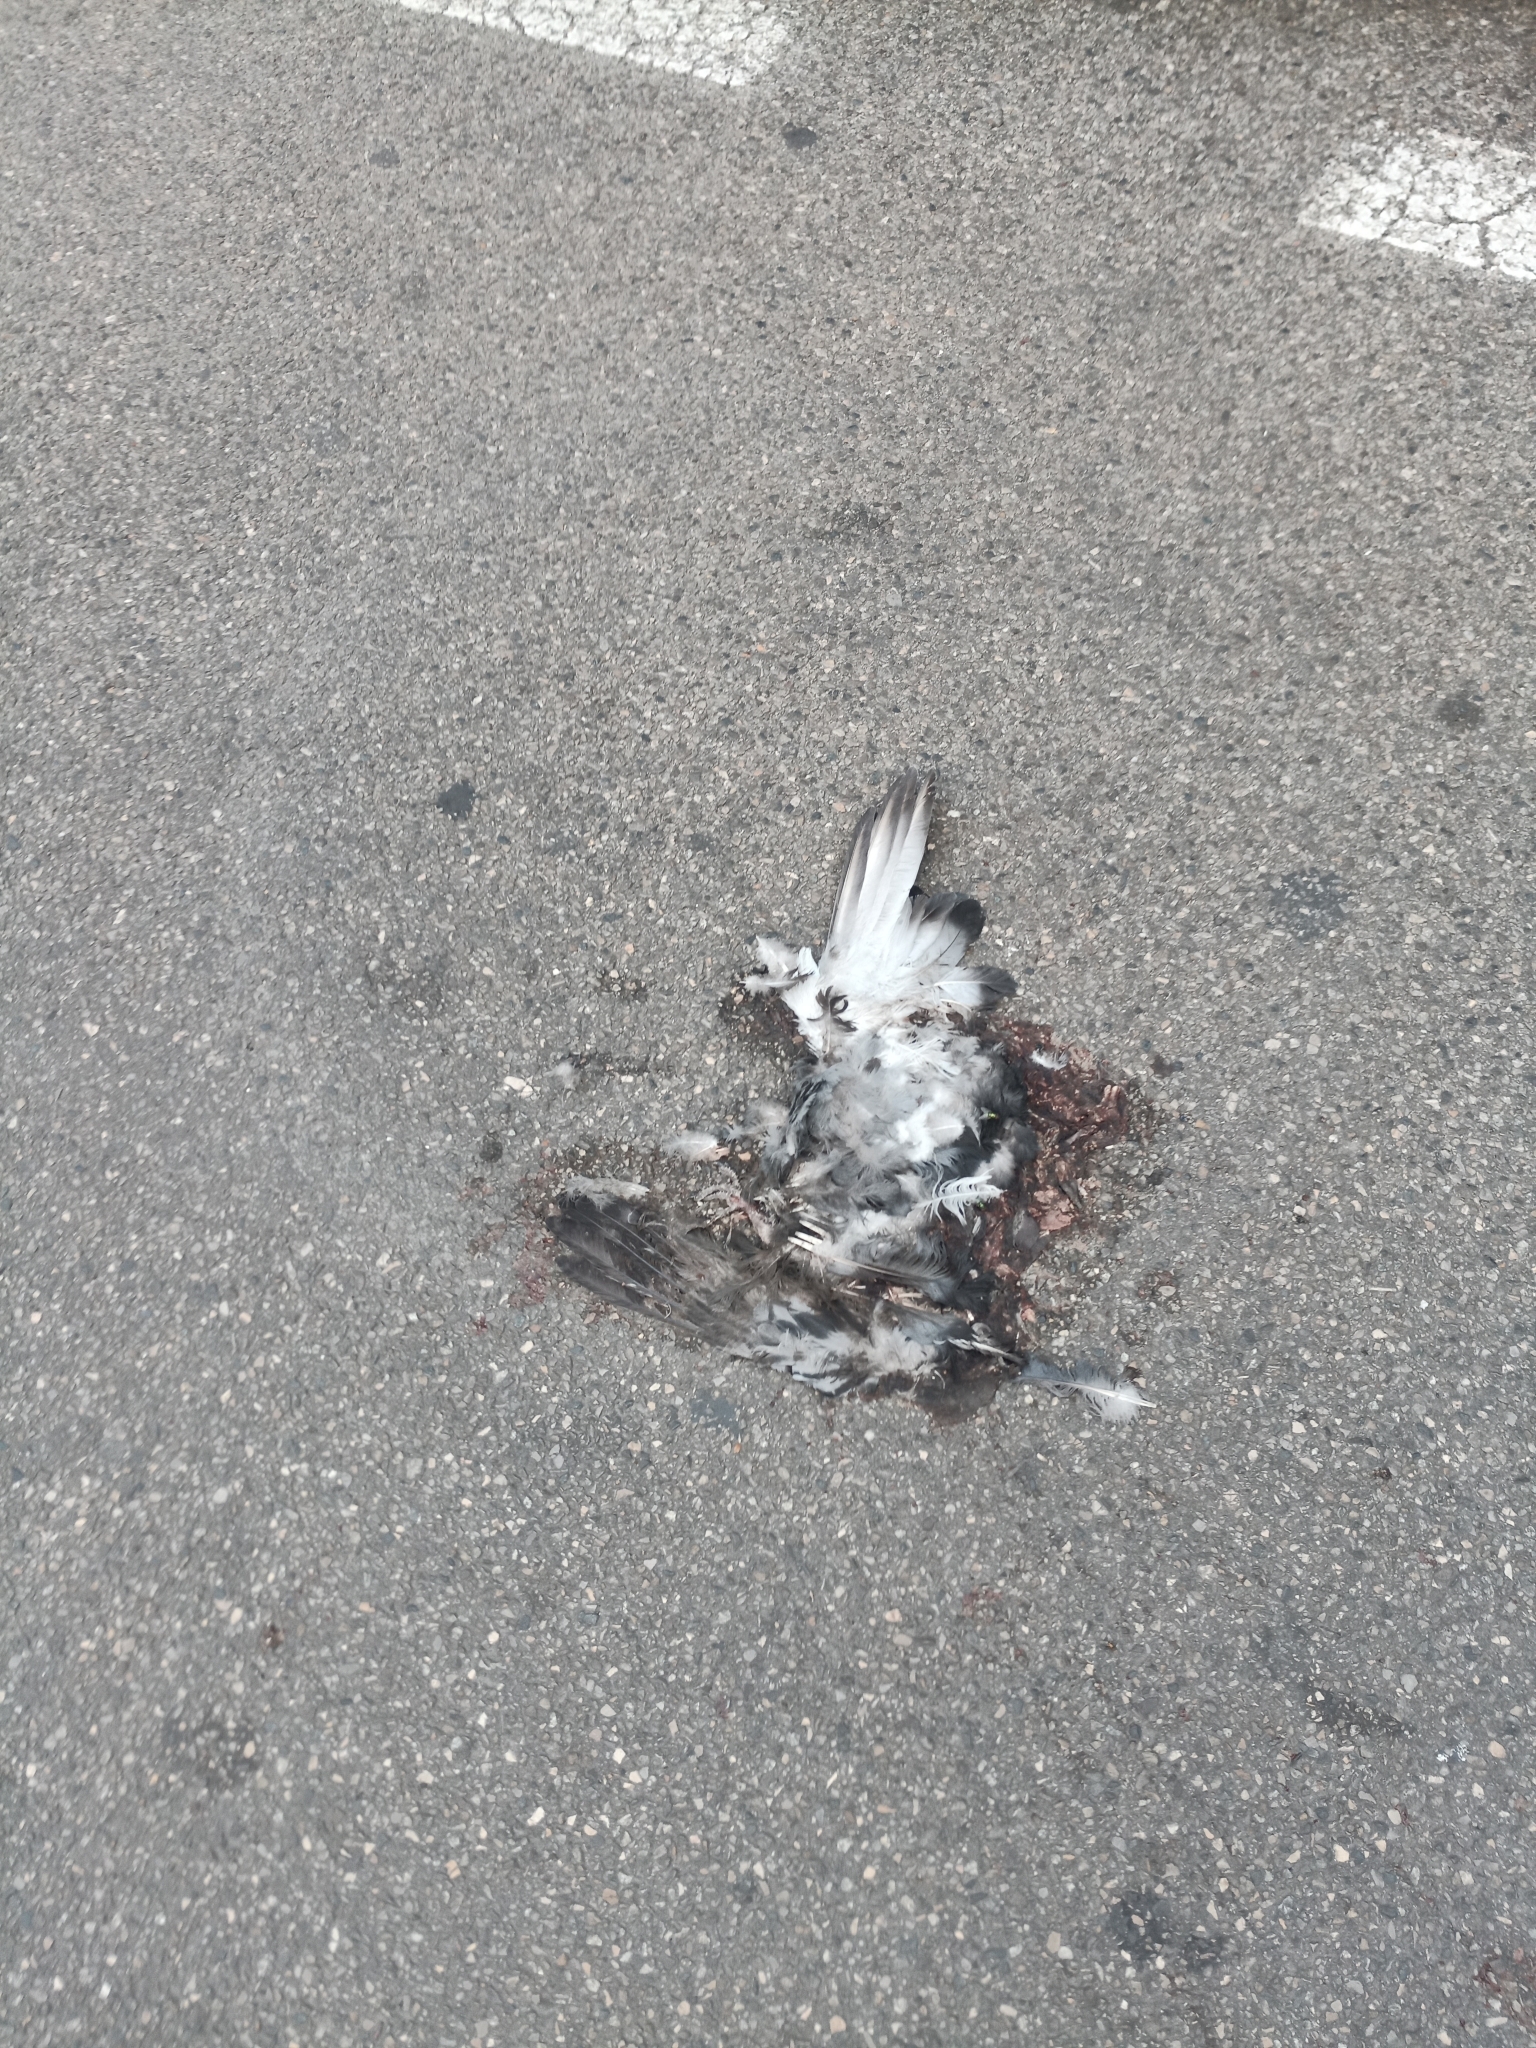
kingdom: Animalia
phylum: Chordata
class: Aves
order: Columbiformes
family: Columbidae
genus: Columba
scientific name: Columba livia
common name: Rock pigeon
